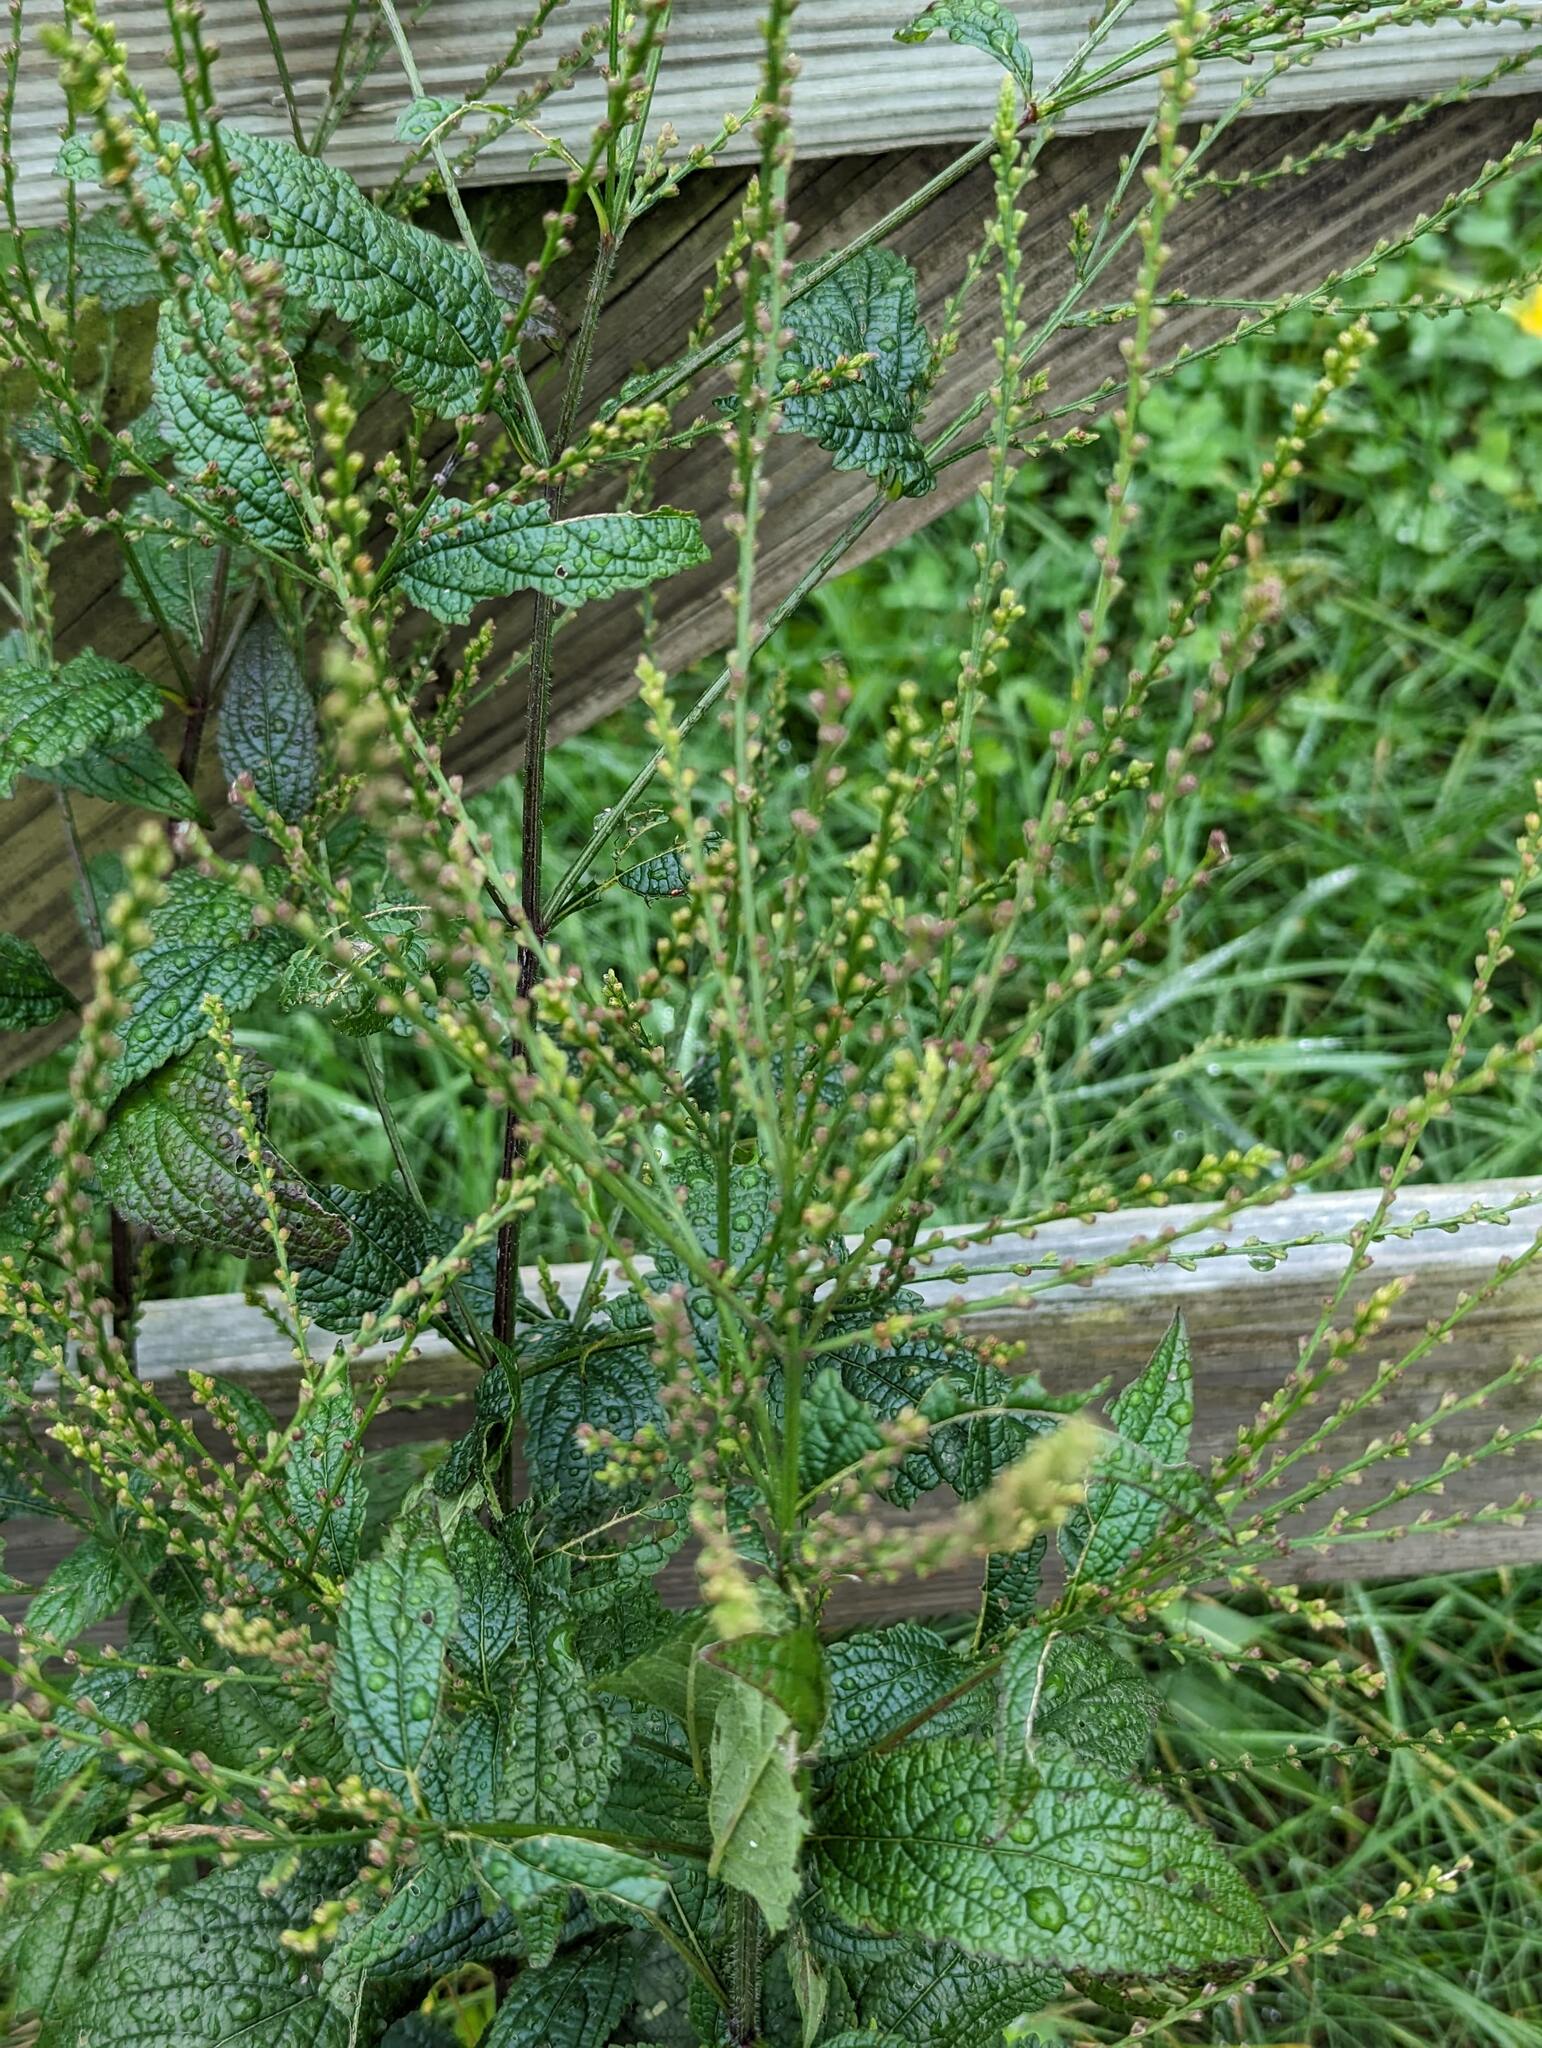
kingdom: Plantae
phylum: Tracheophyta
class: Magnoliopsida
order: Lamiales
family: Verbenaceae
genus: Verbena
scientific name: Verbena urticifolia
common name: Nettle-leaved vervain
